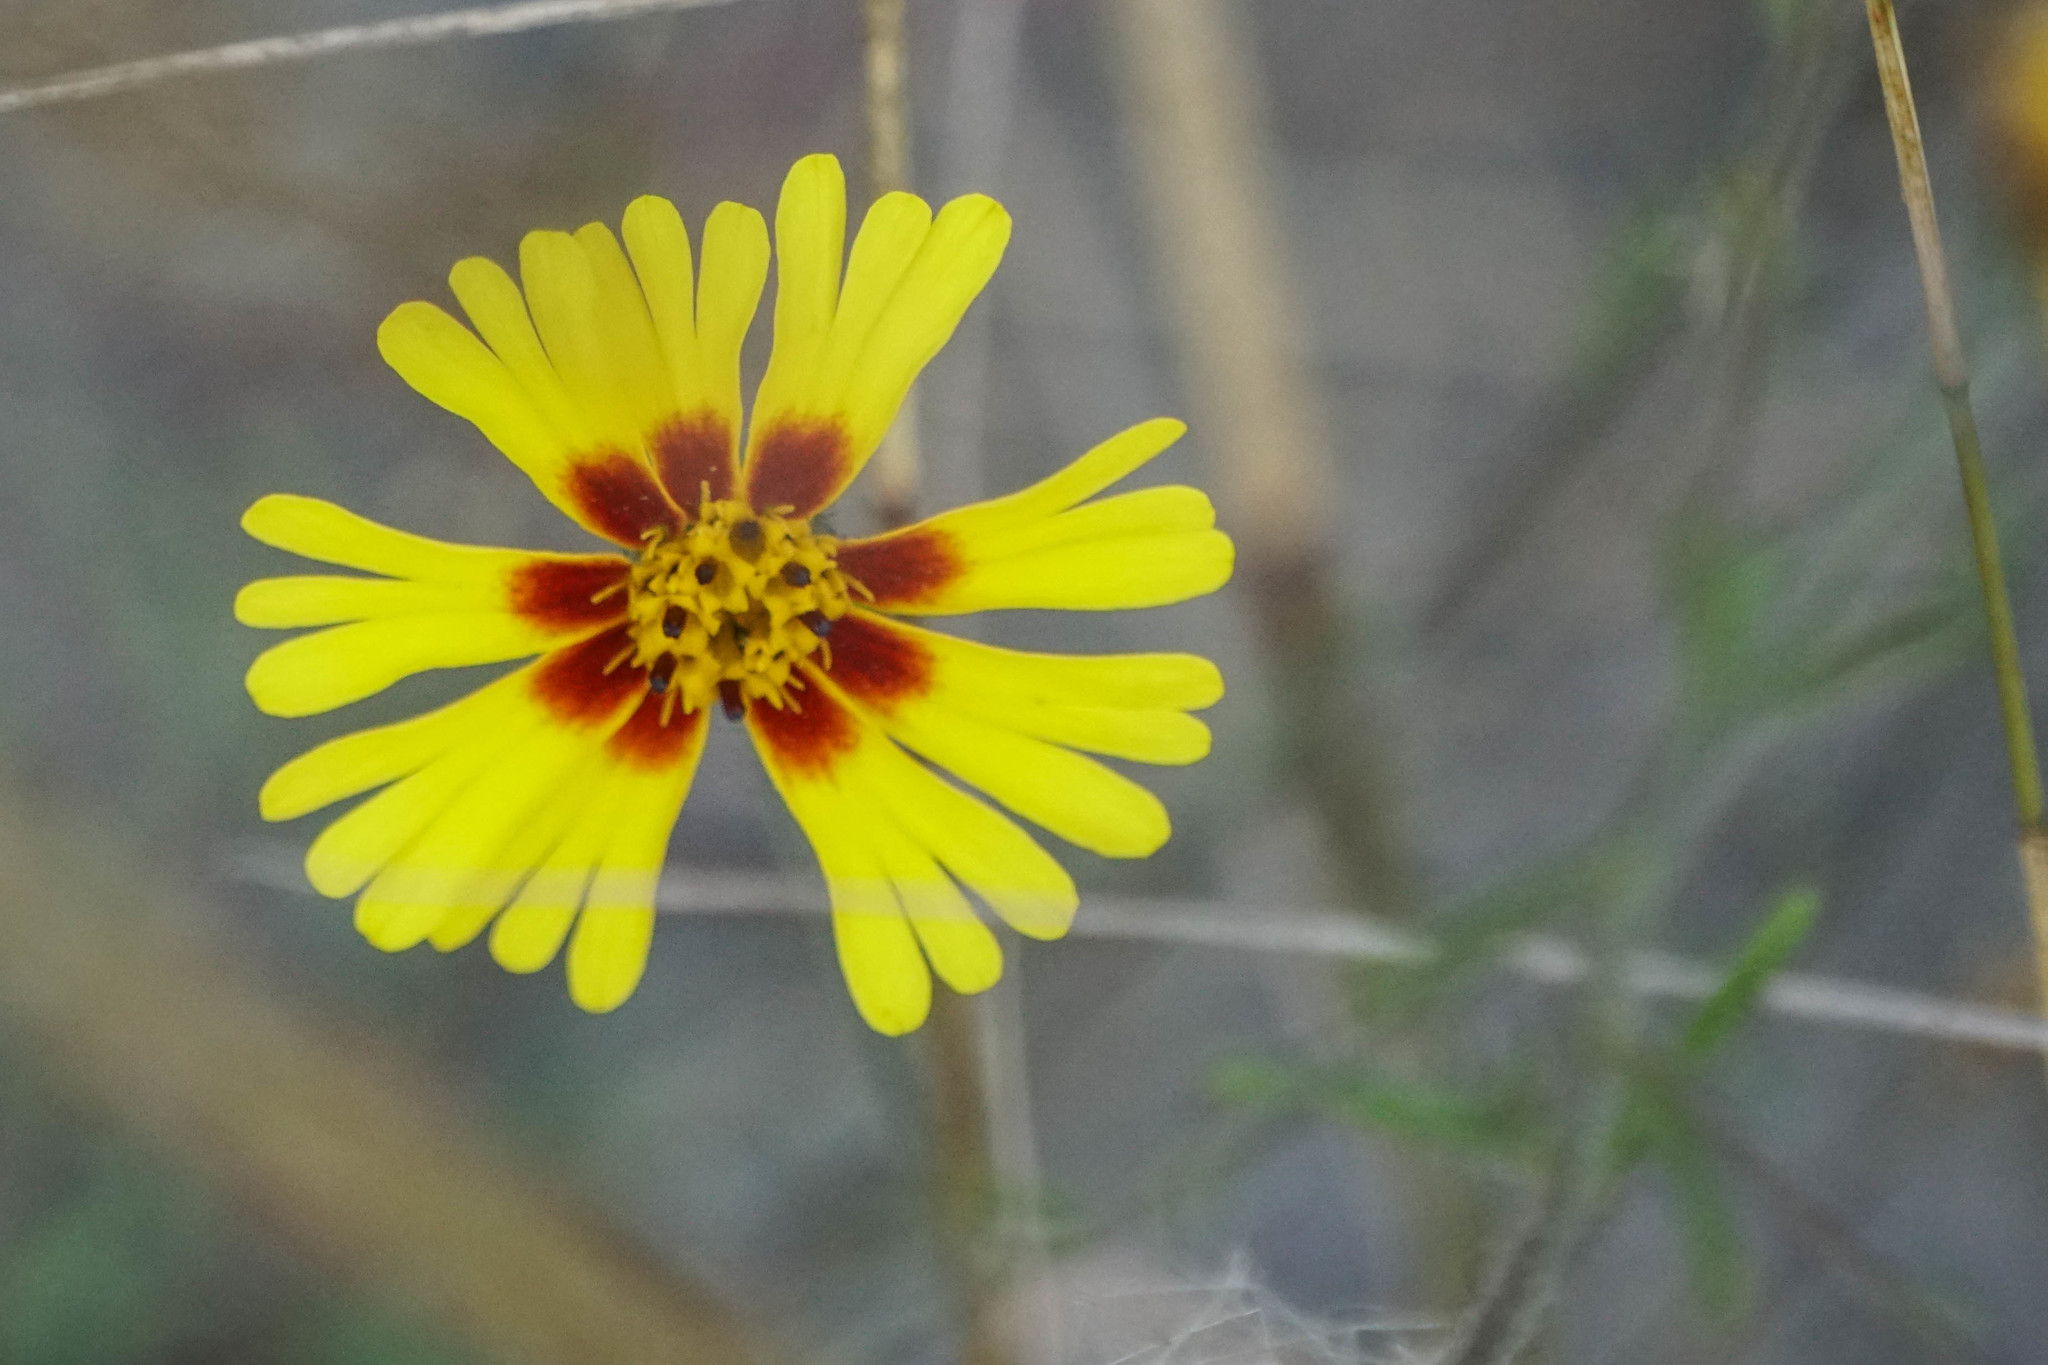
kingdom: Plantae
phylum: Tracheophyta
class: Magnoliopsida
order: Asterales
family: Asteraceae
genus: Madia
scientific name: Madia elegans
